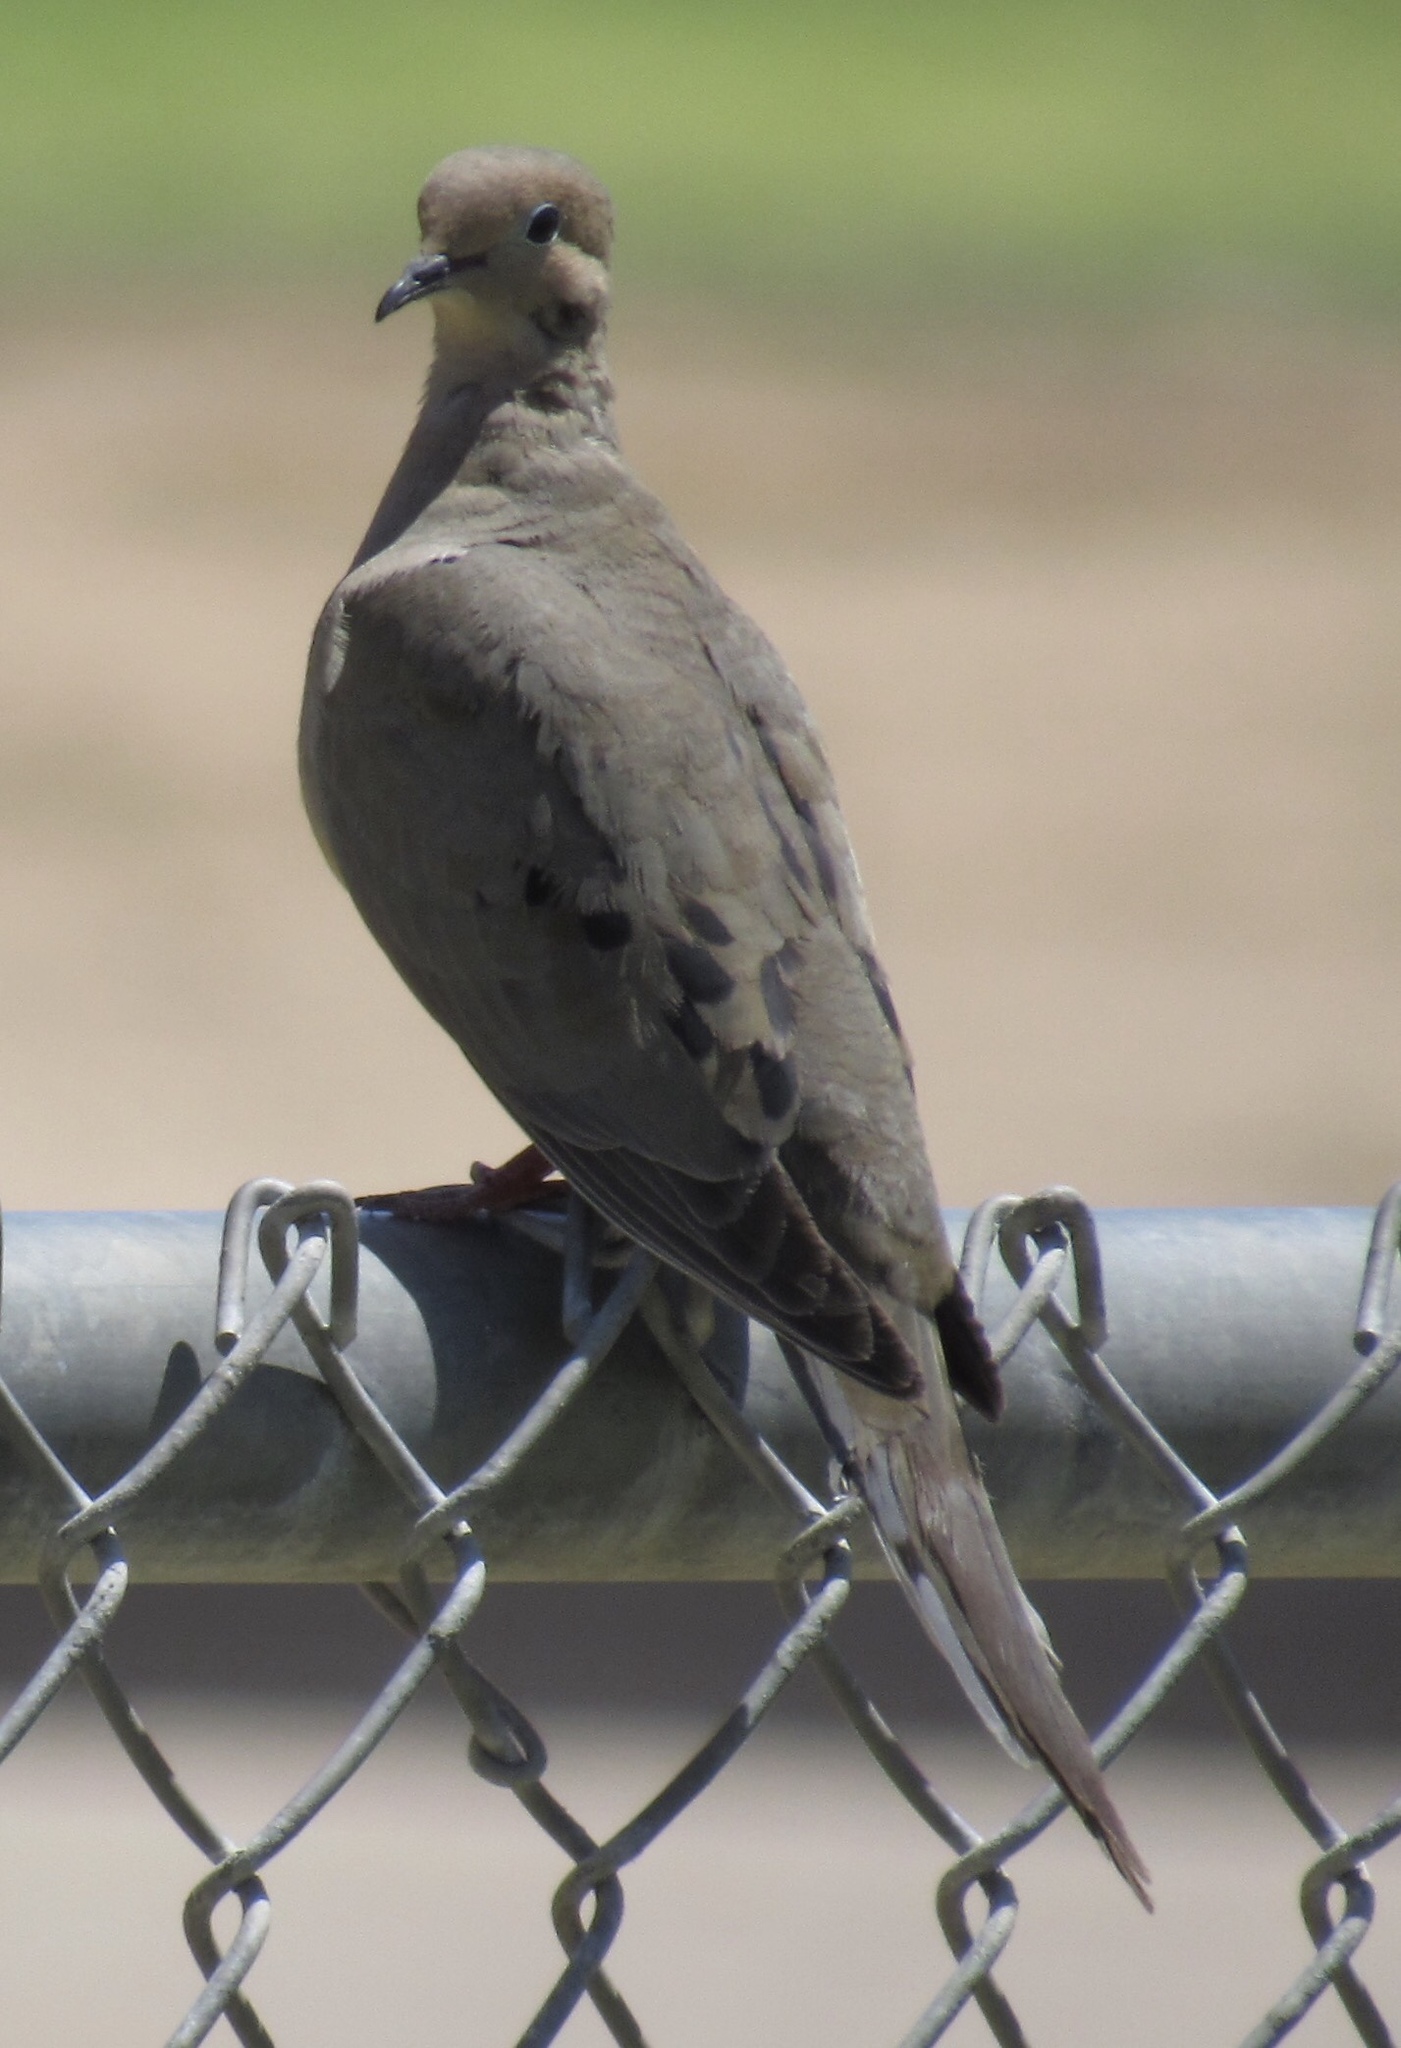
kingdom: Animalia
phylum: Chordata
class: Aves
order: Columbiformes
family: Columbidae
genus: Zenaida
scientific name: Zenaida macroura
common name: Mourning dove
